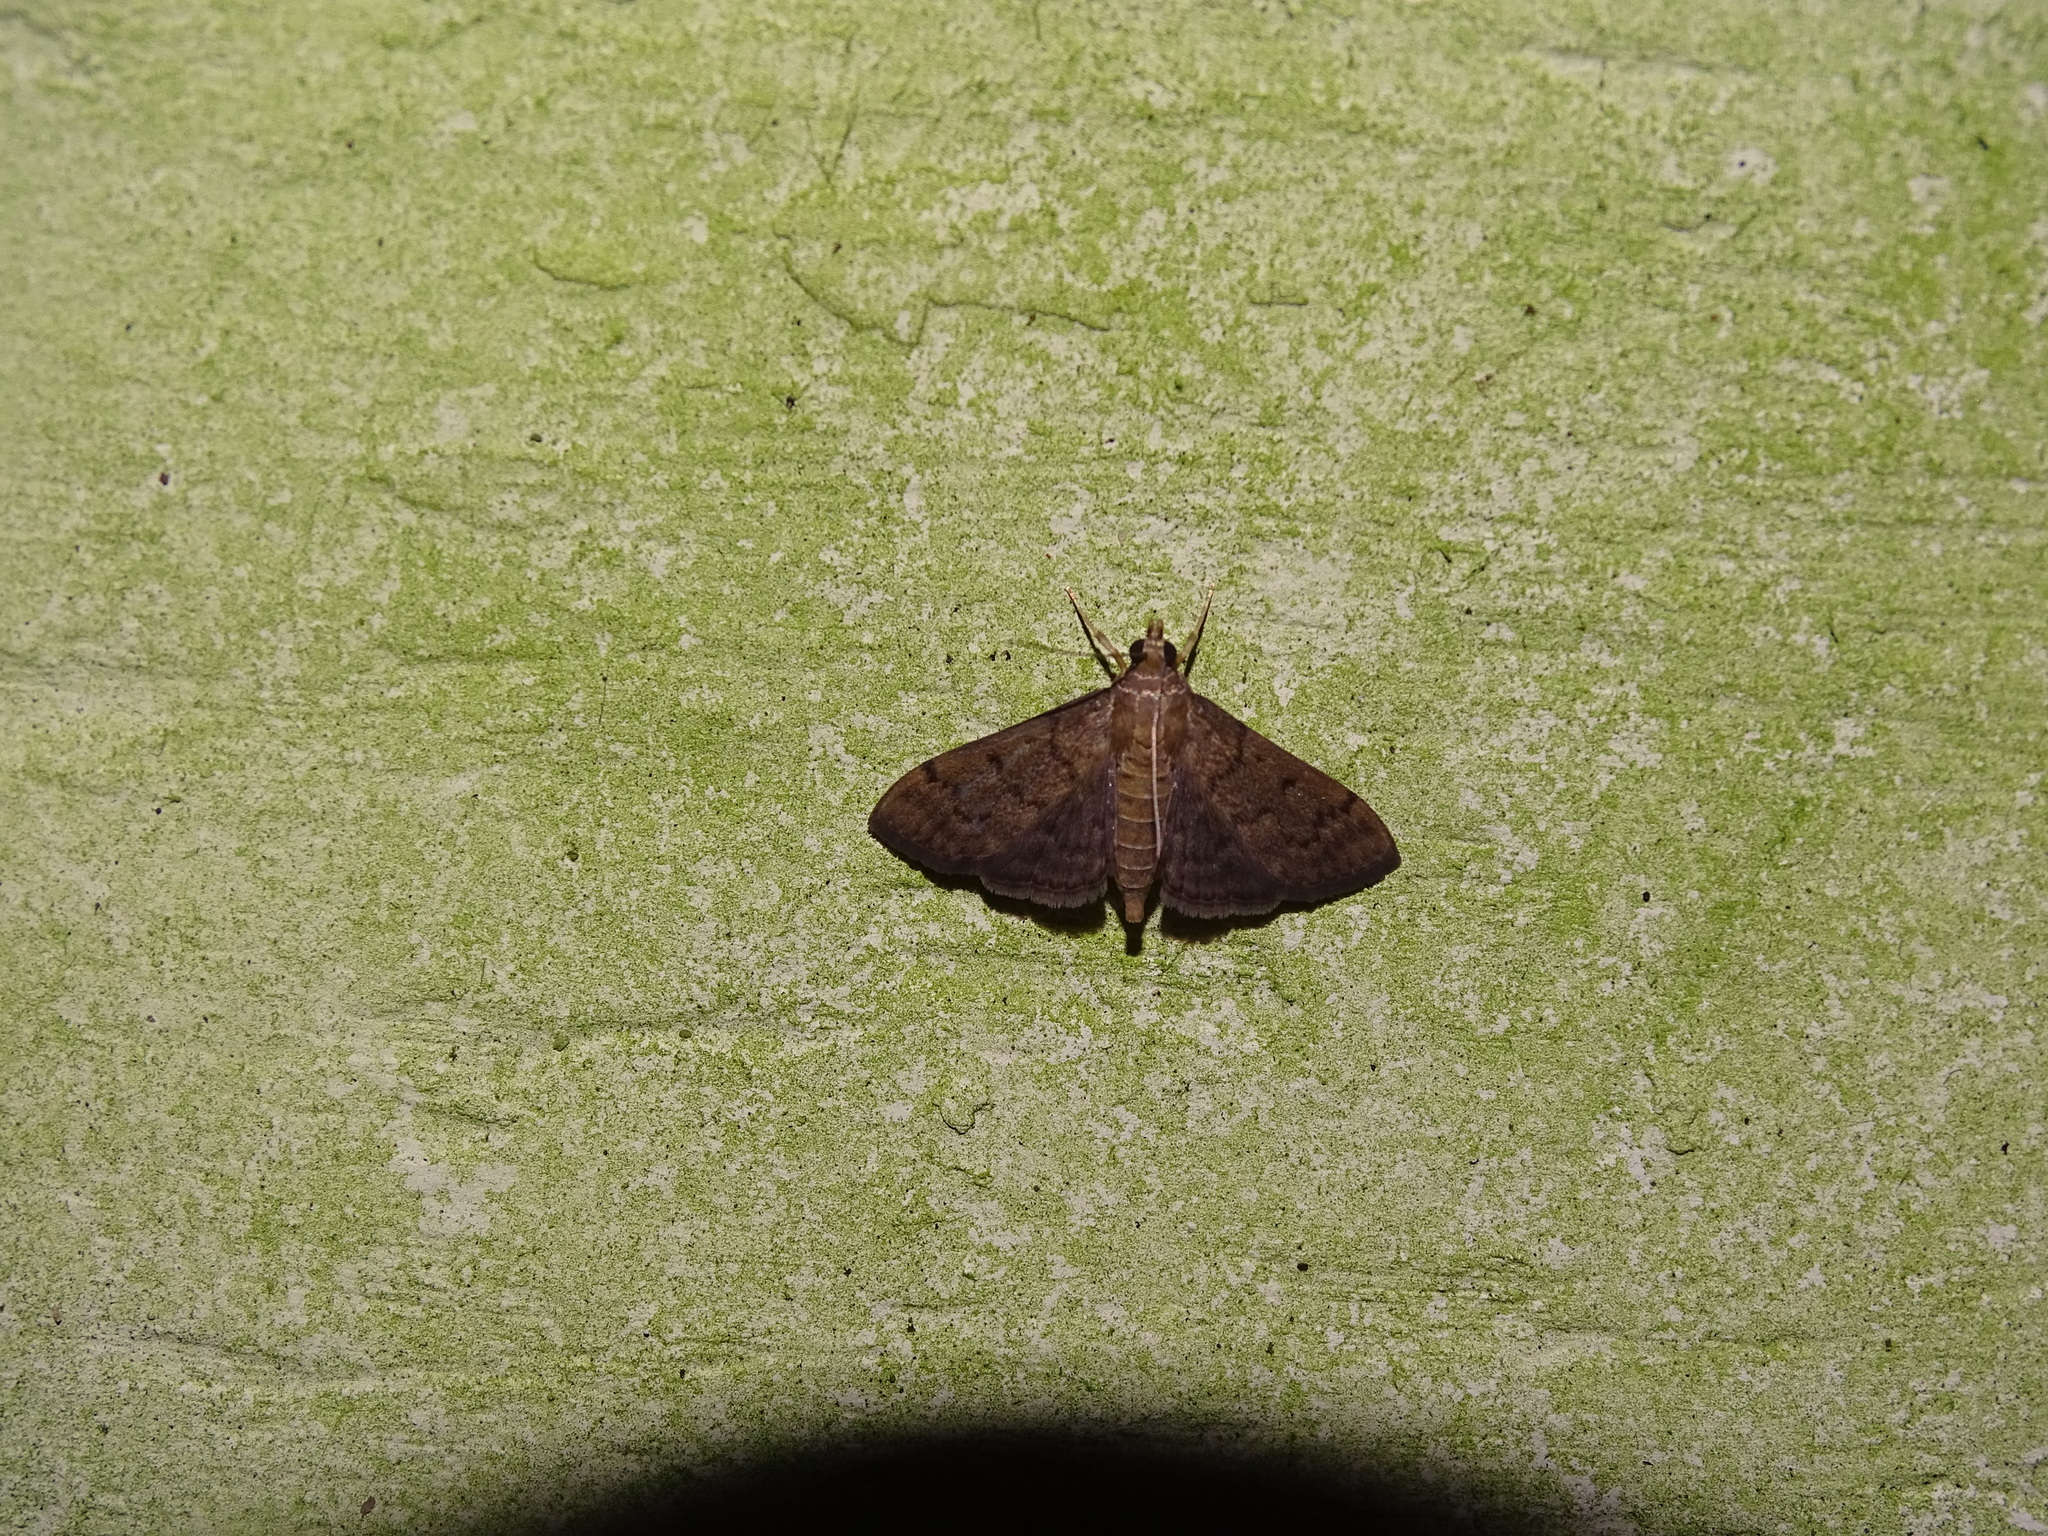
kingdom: Animalia
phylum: Arthropoda
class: Insecta
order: Lepidoptera
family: Crambidae
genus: Herpetogramma
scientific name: Herpetogramma phaeopteralis
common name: Dusky herpetogramma moth
